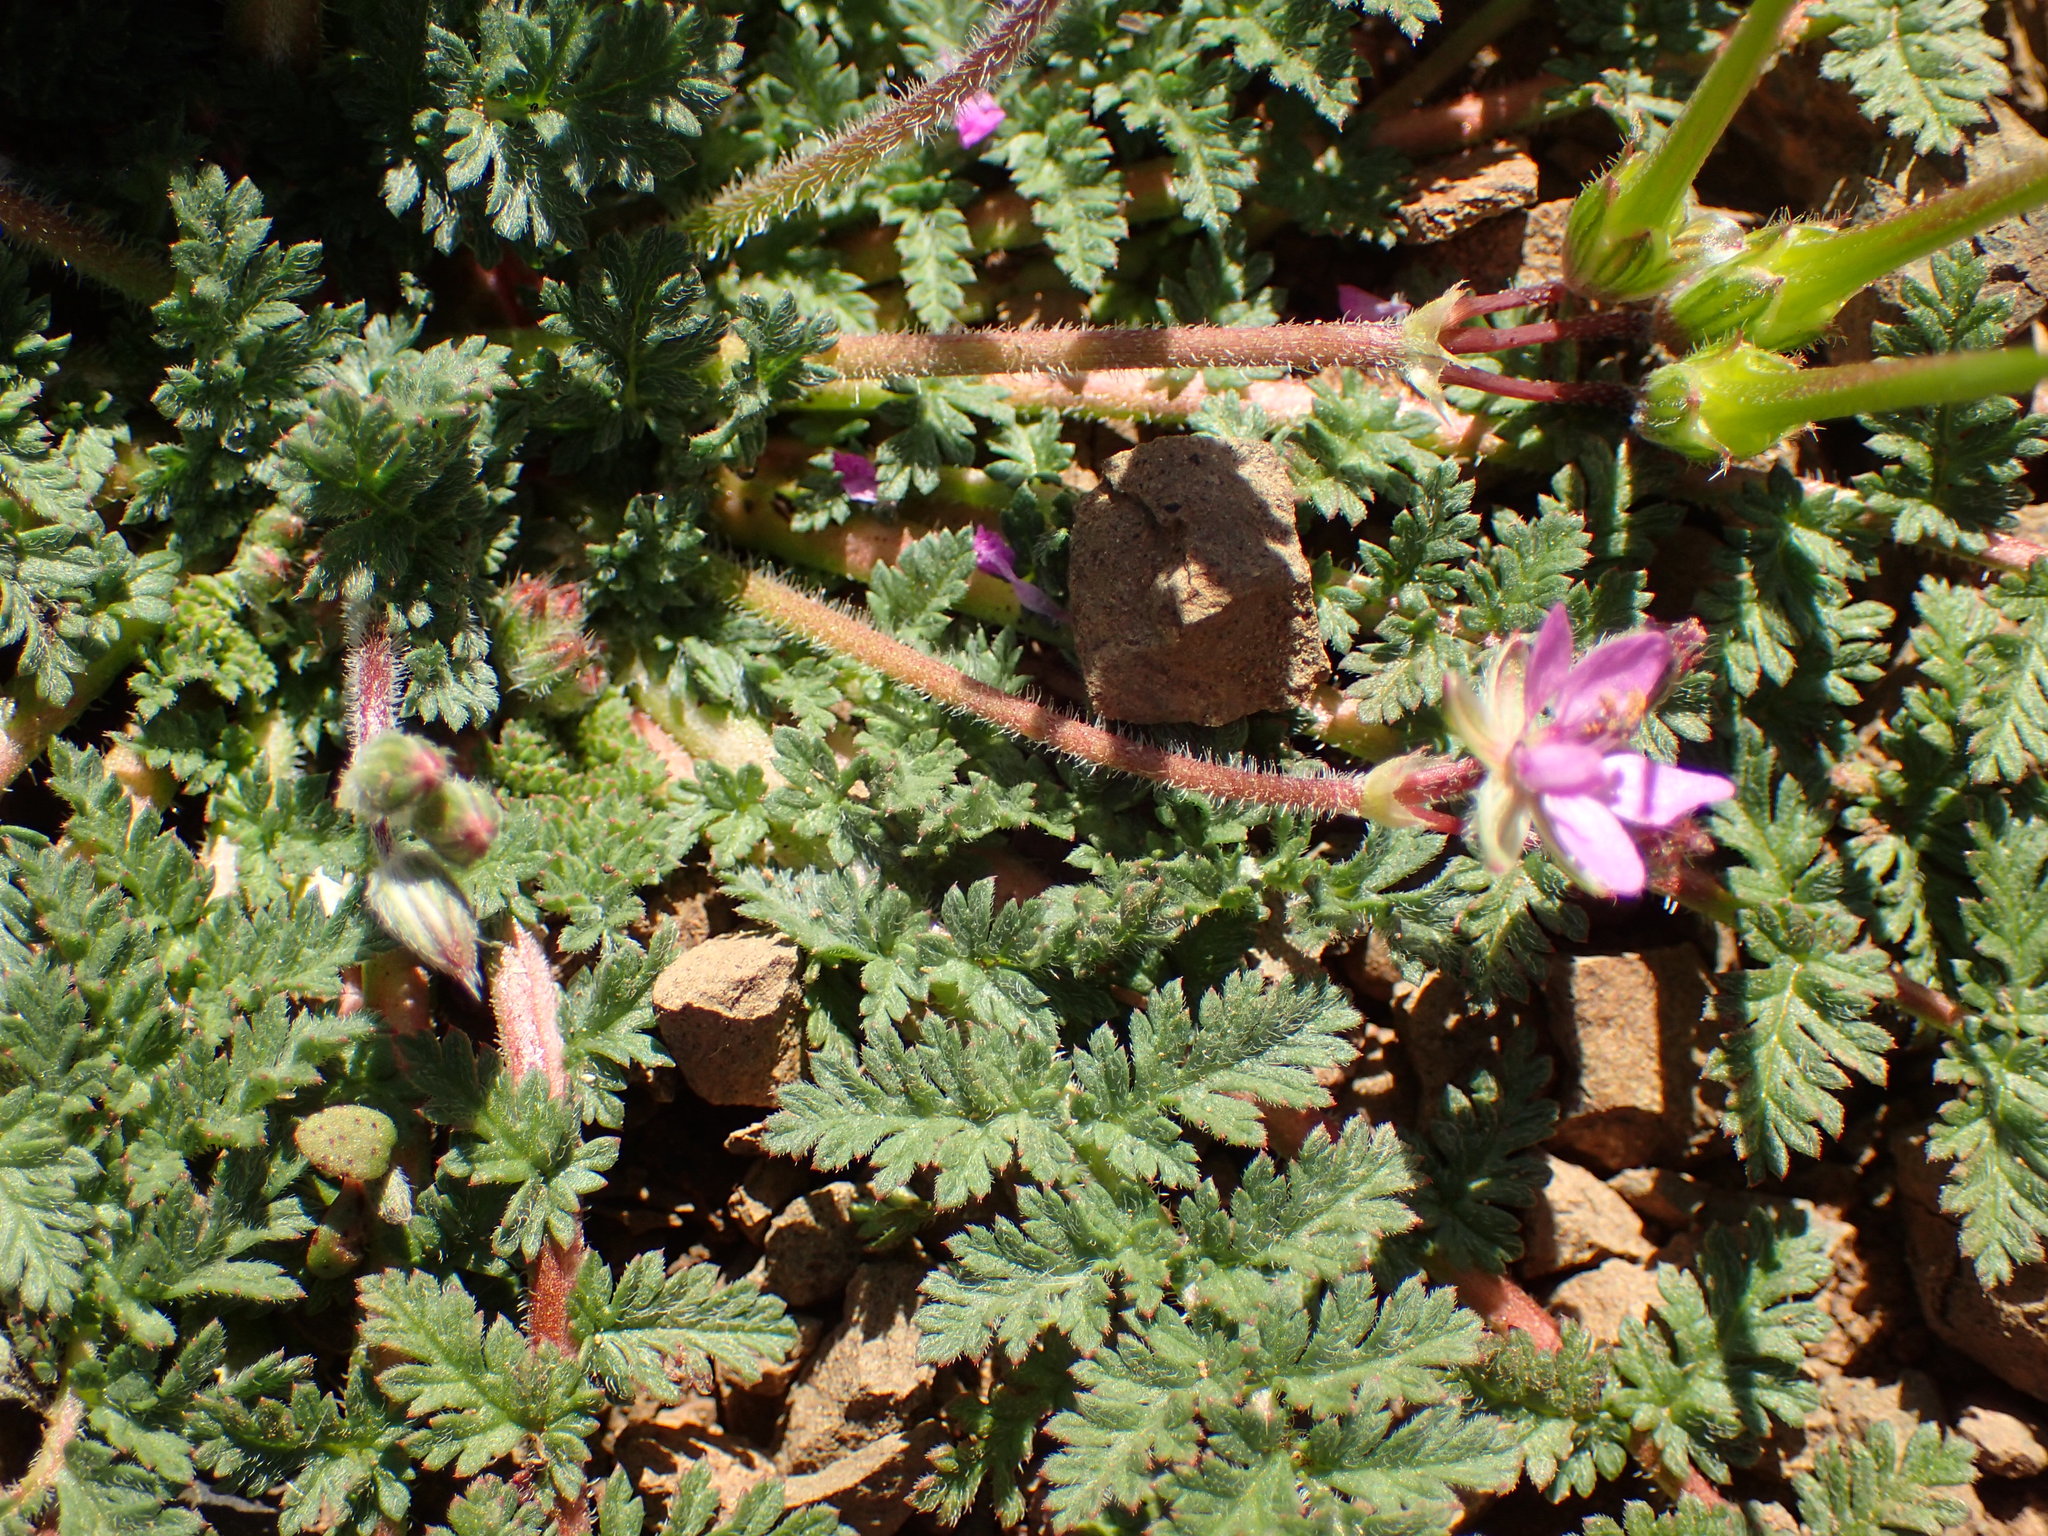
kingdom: Plantae
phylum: Tracheophyta
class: Magnoliopsida
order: Geraniales
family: Geraniaceae
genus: Erodium
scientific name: Erodium cicutarium
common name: Common stork's-bill
